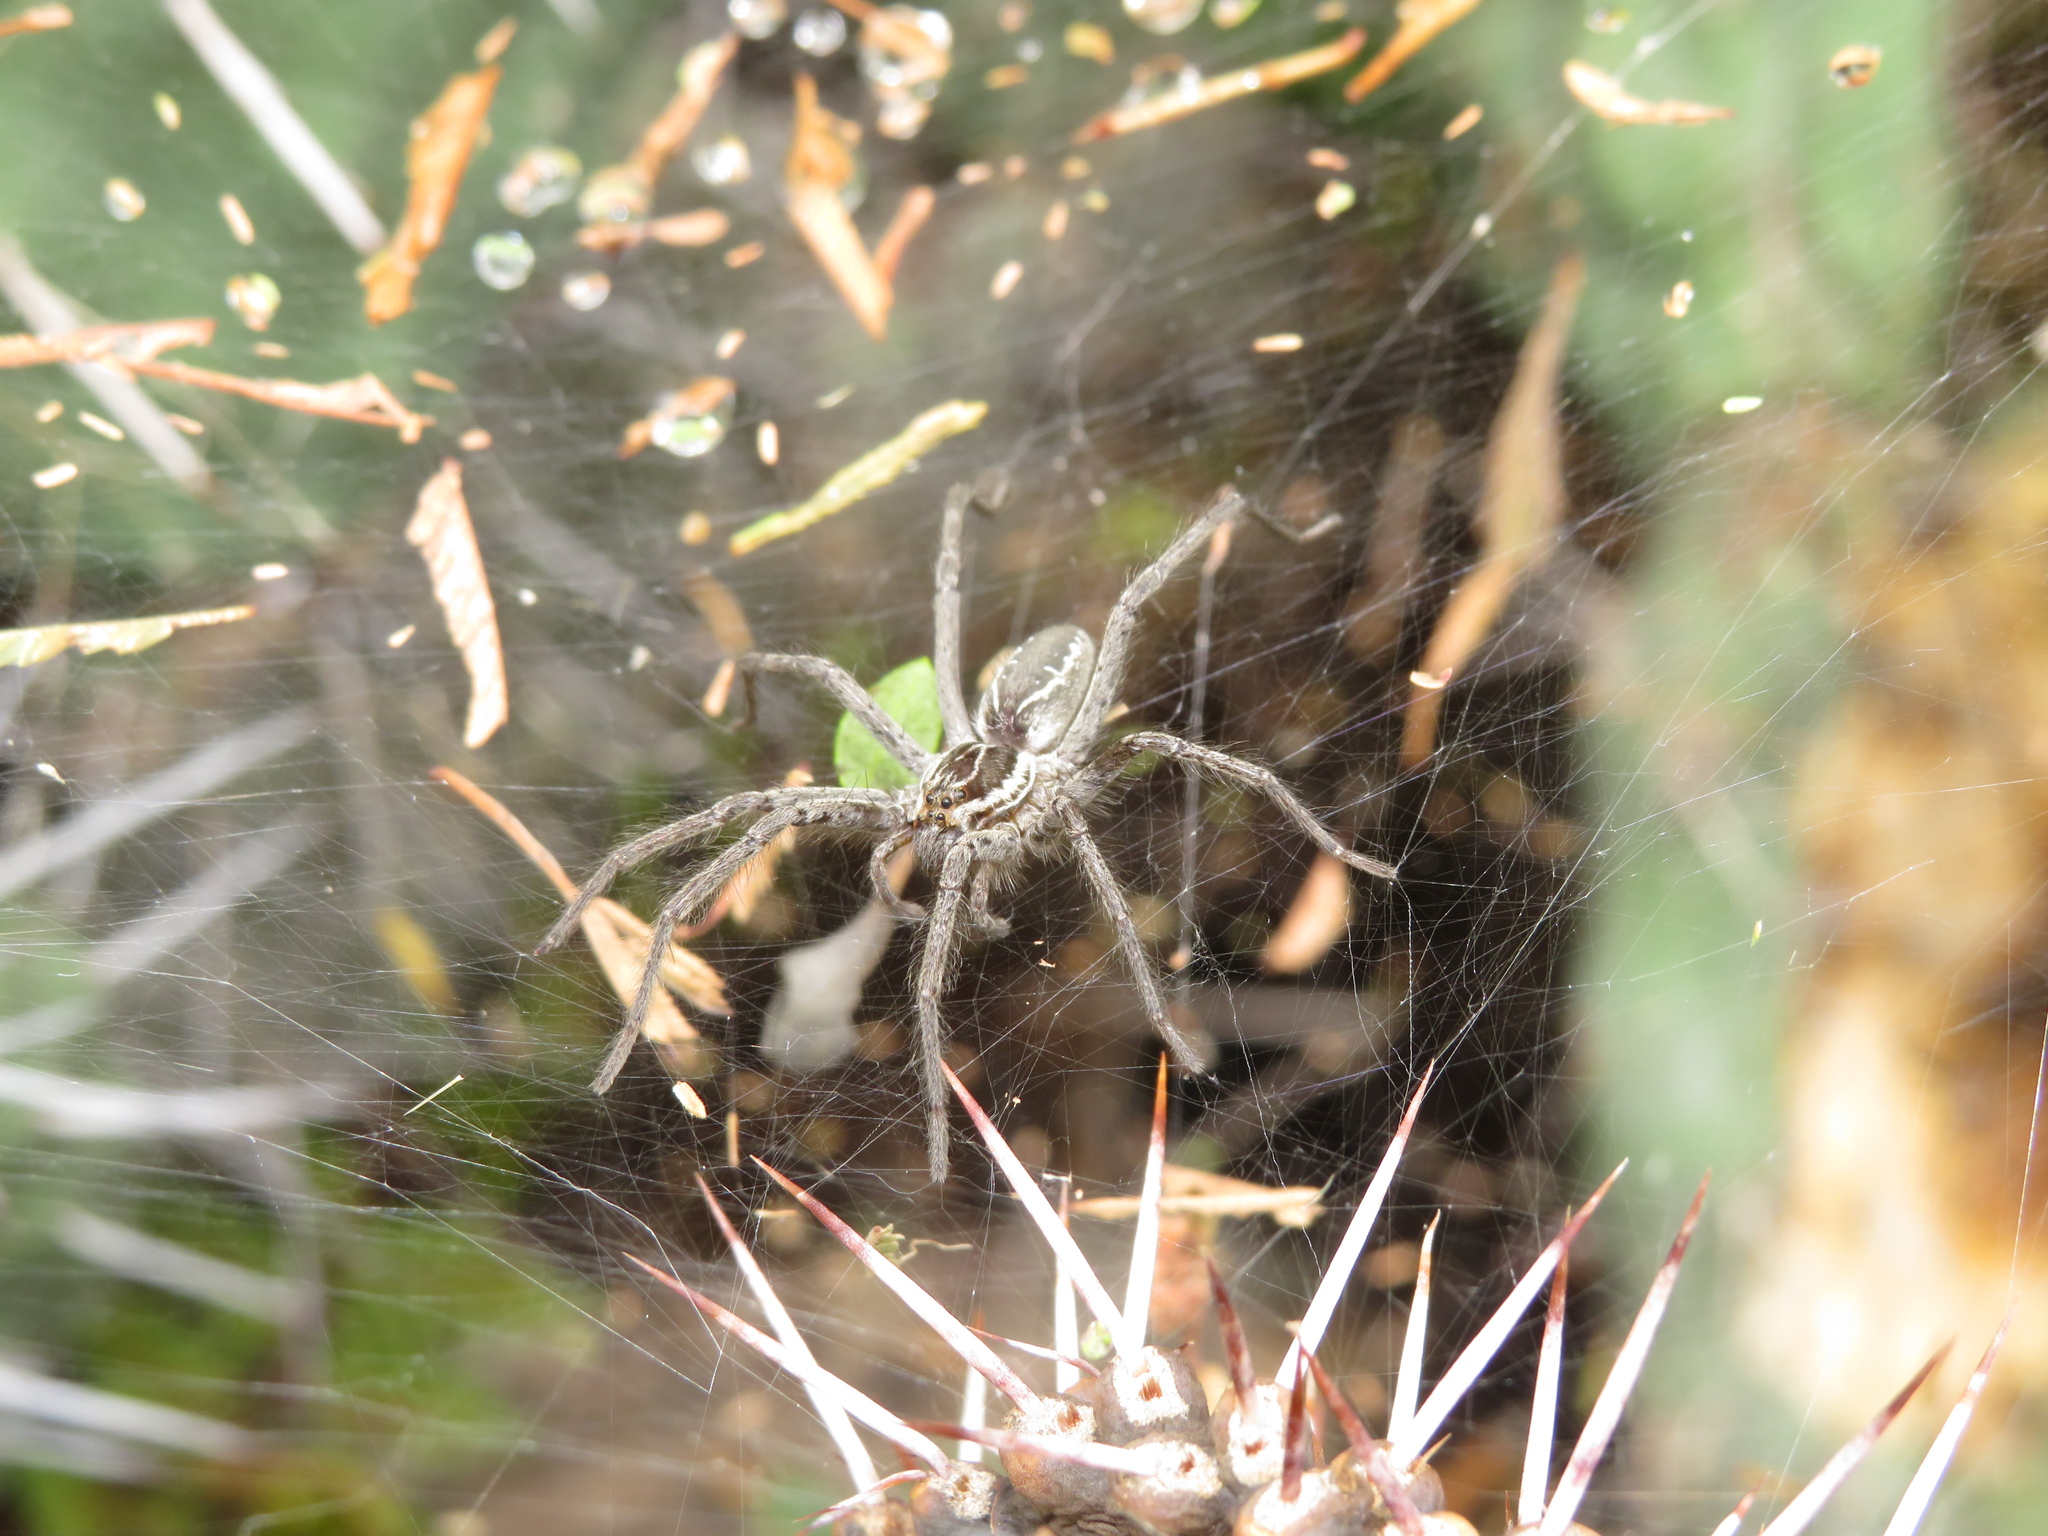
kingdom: Animalia
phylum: Arthropoda
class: Arachnida
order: Araneae
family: Lycosidae
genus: Aglaoctenus
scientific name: Aglaoctenus lagotis
